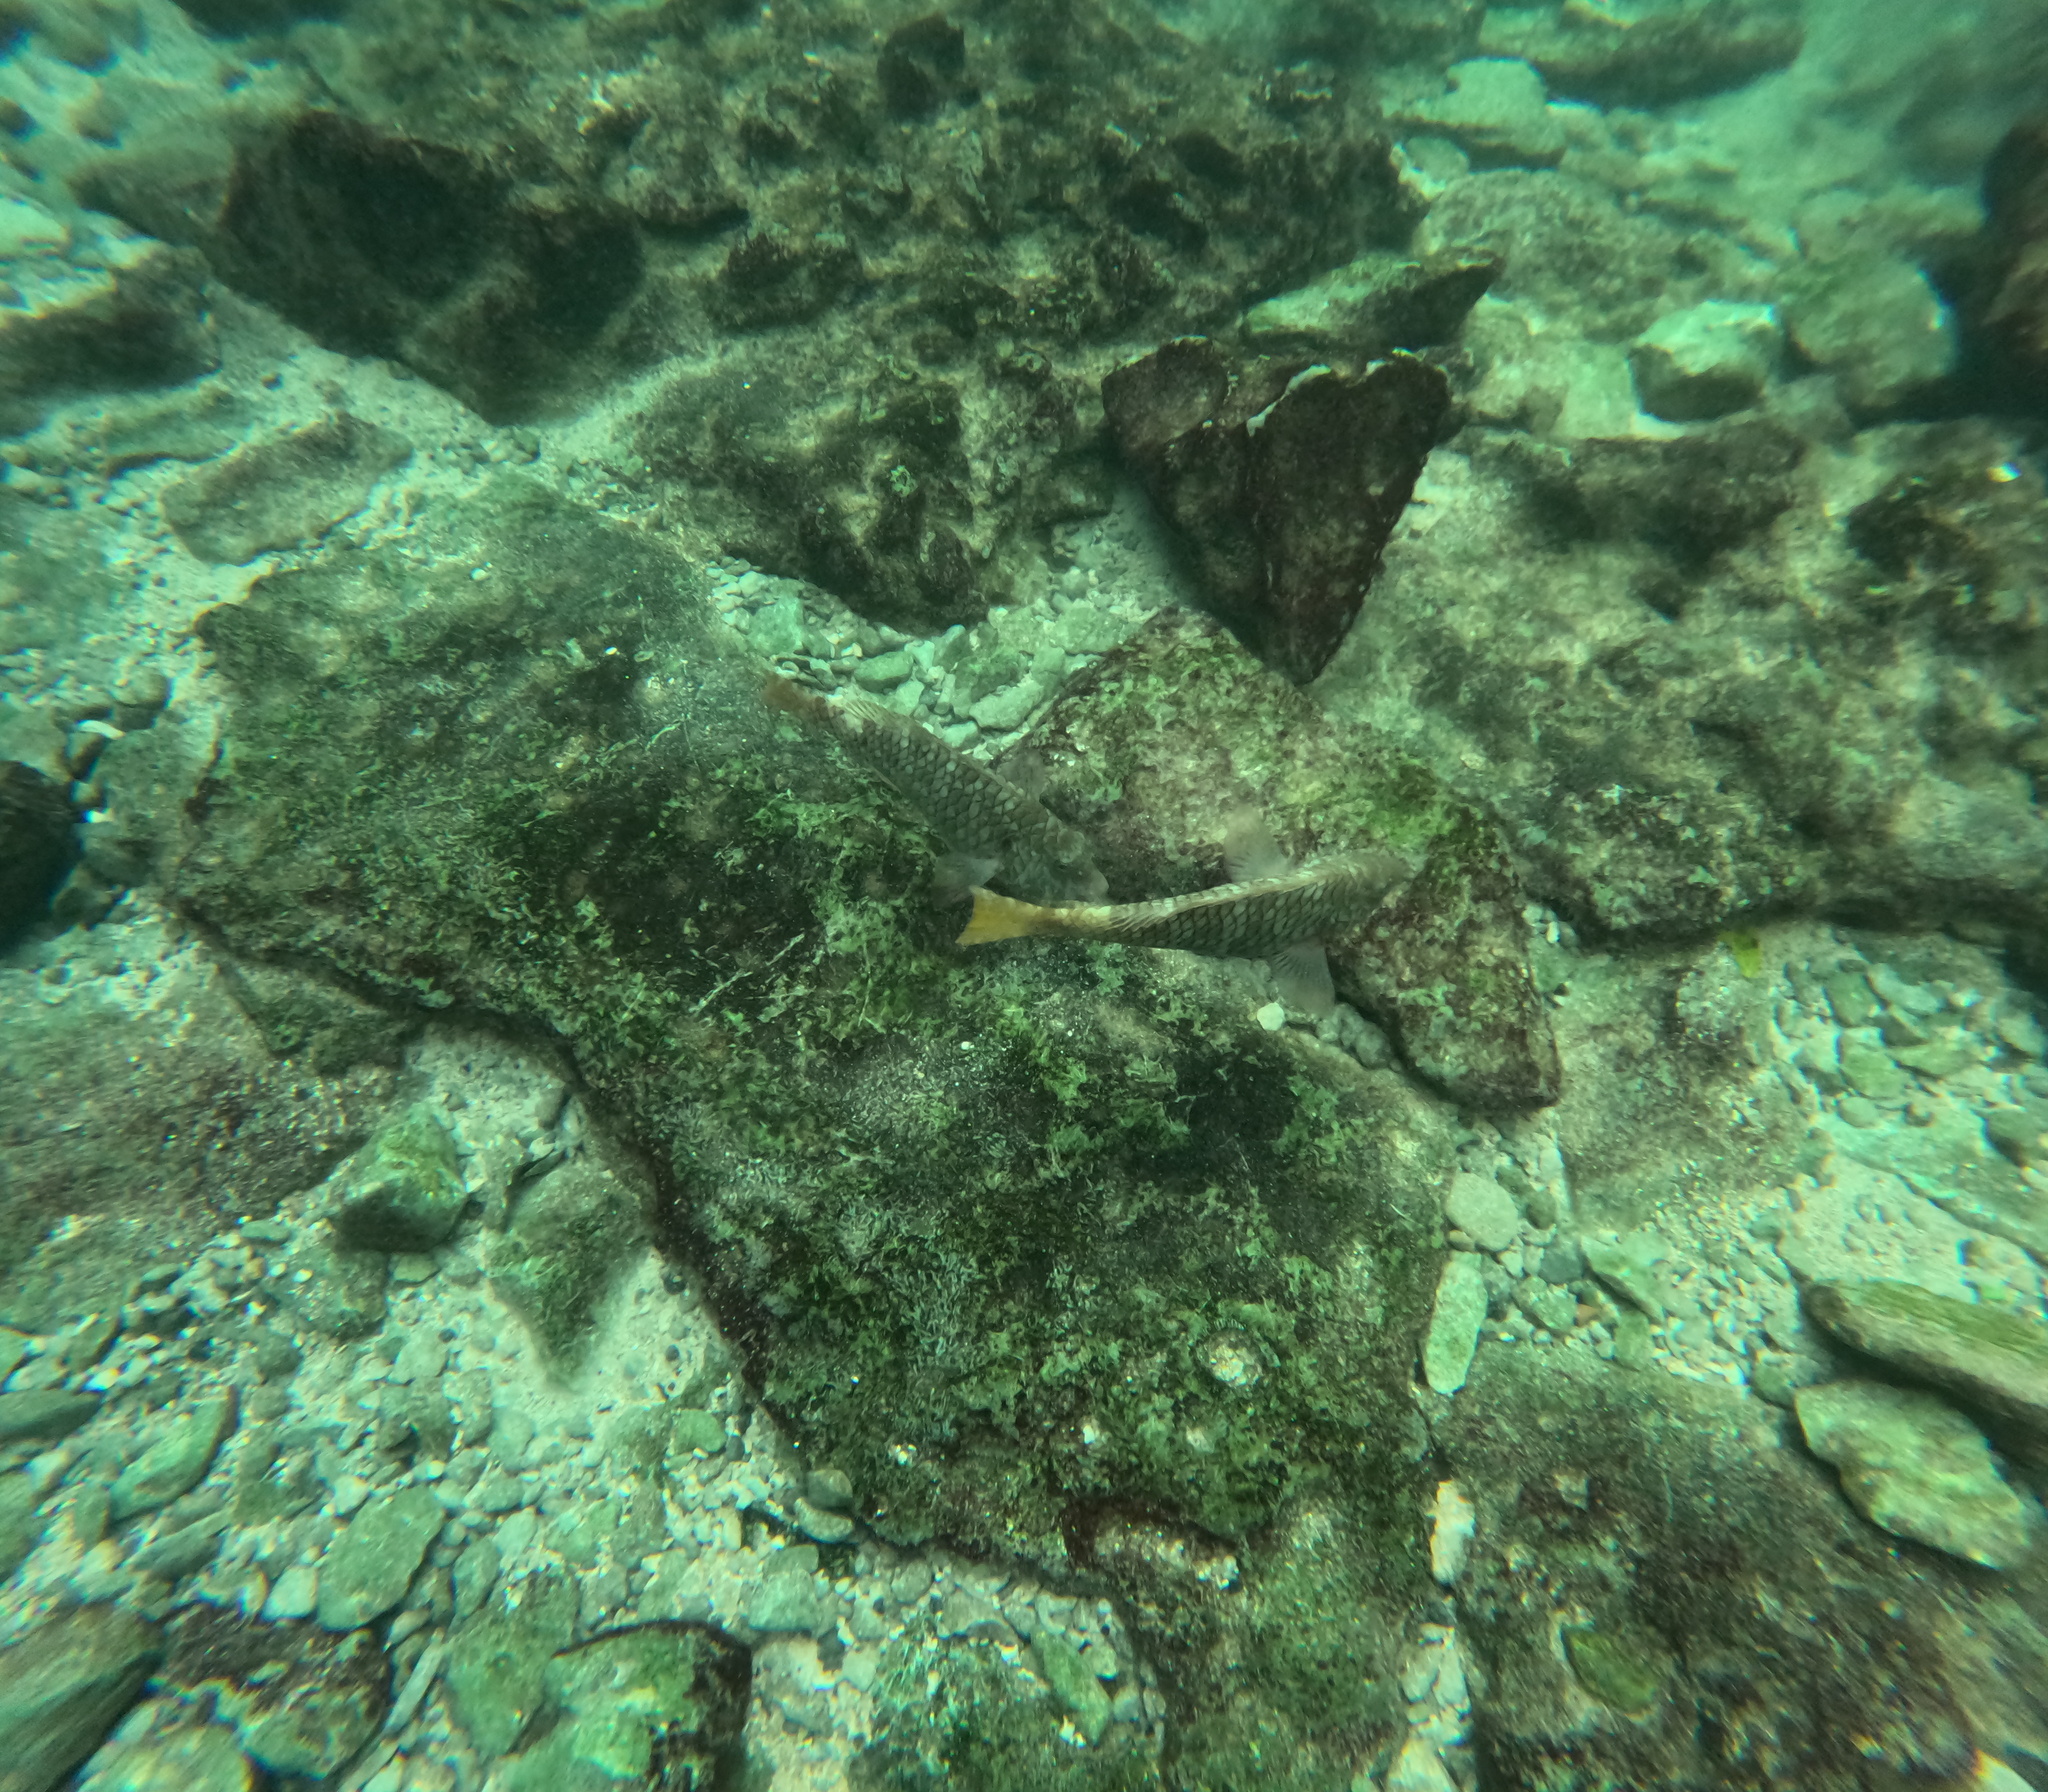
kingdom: Animalia
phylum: Chordata
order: Perciformes
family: Scaridae
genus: Sparisoma
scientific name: Sparisoma rubripinne
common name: Redfin parrotfish
